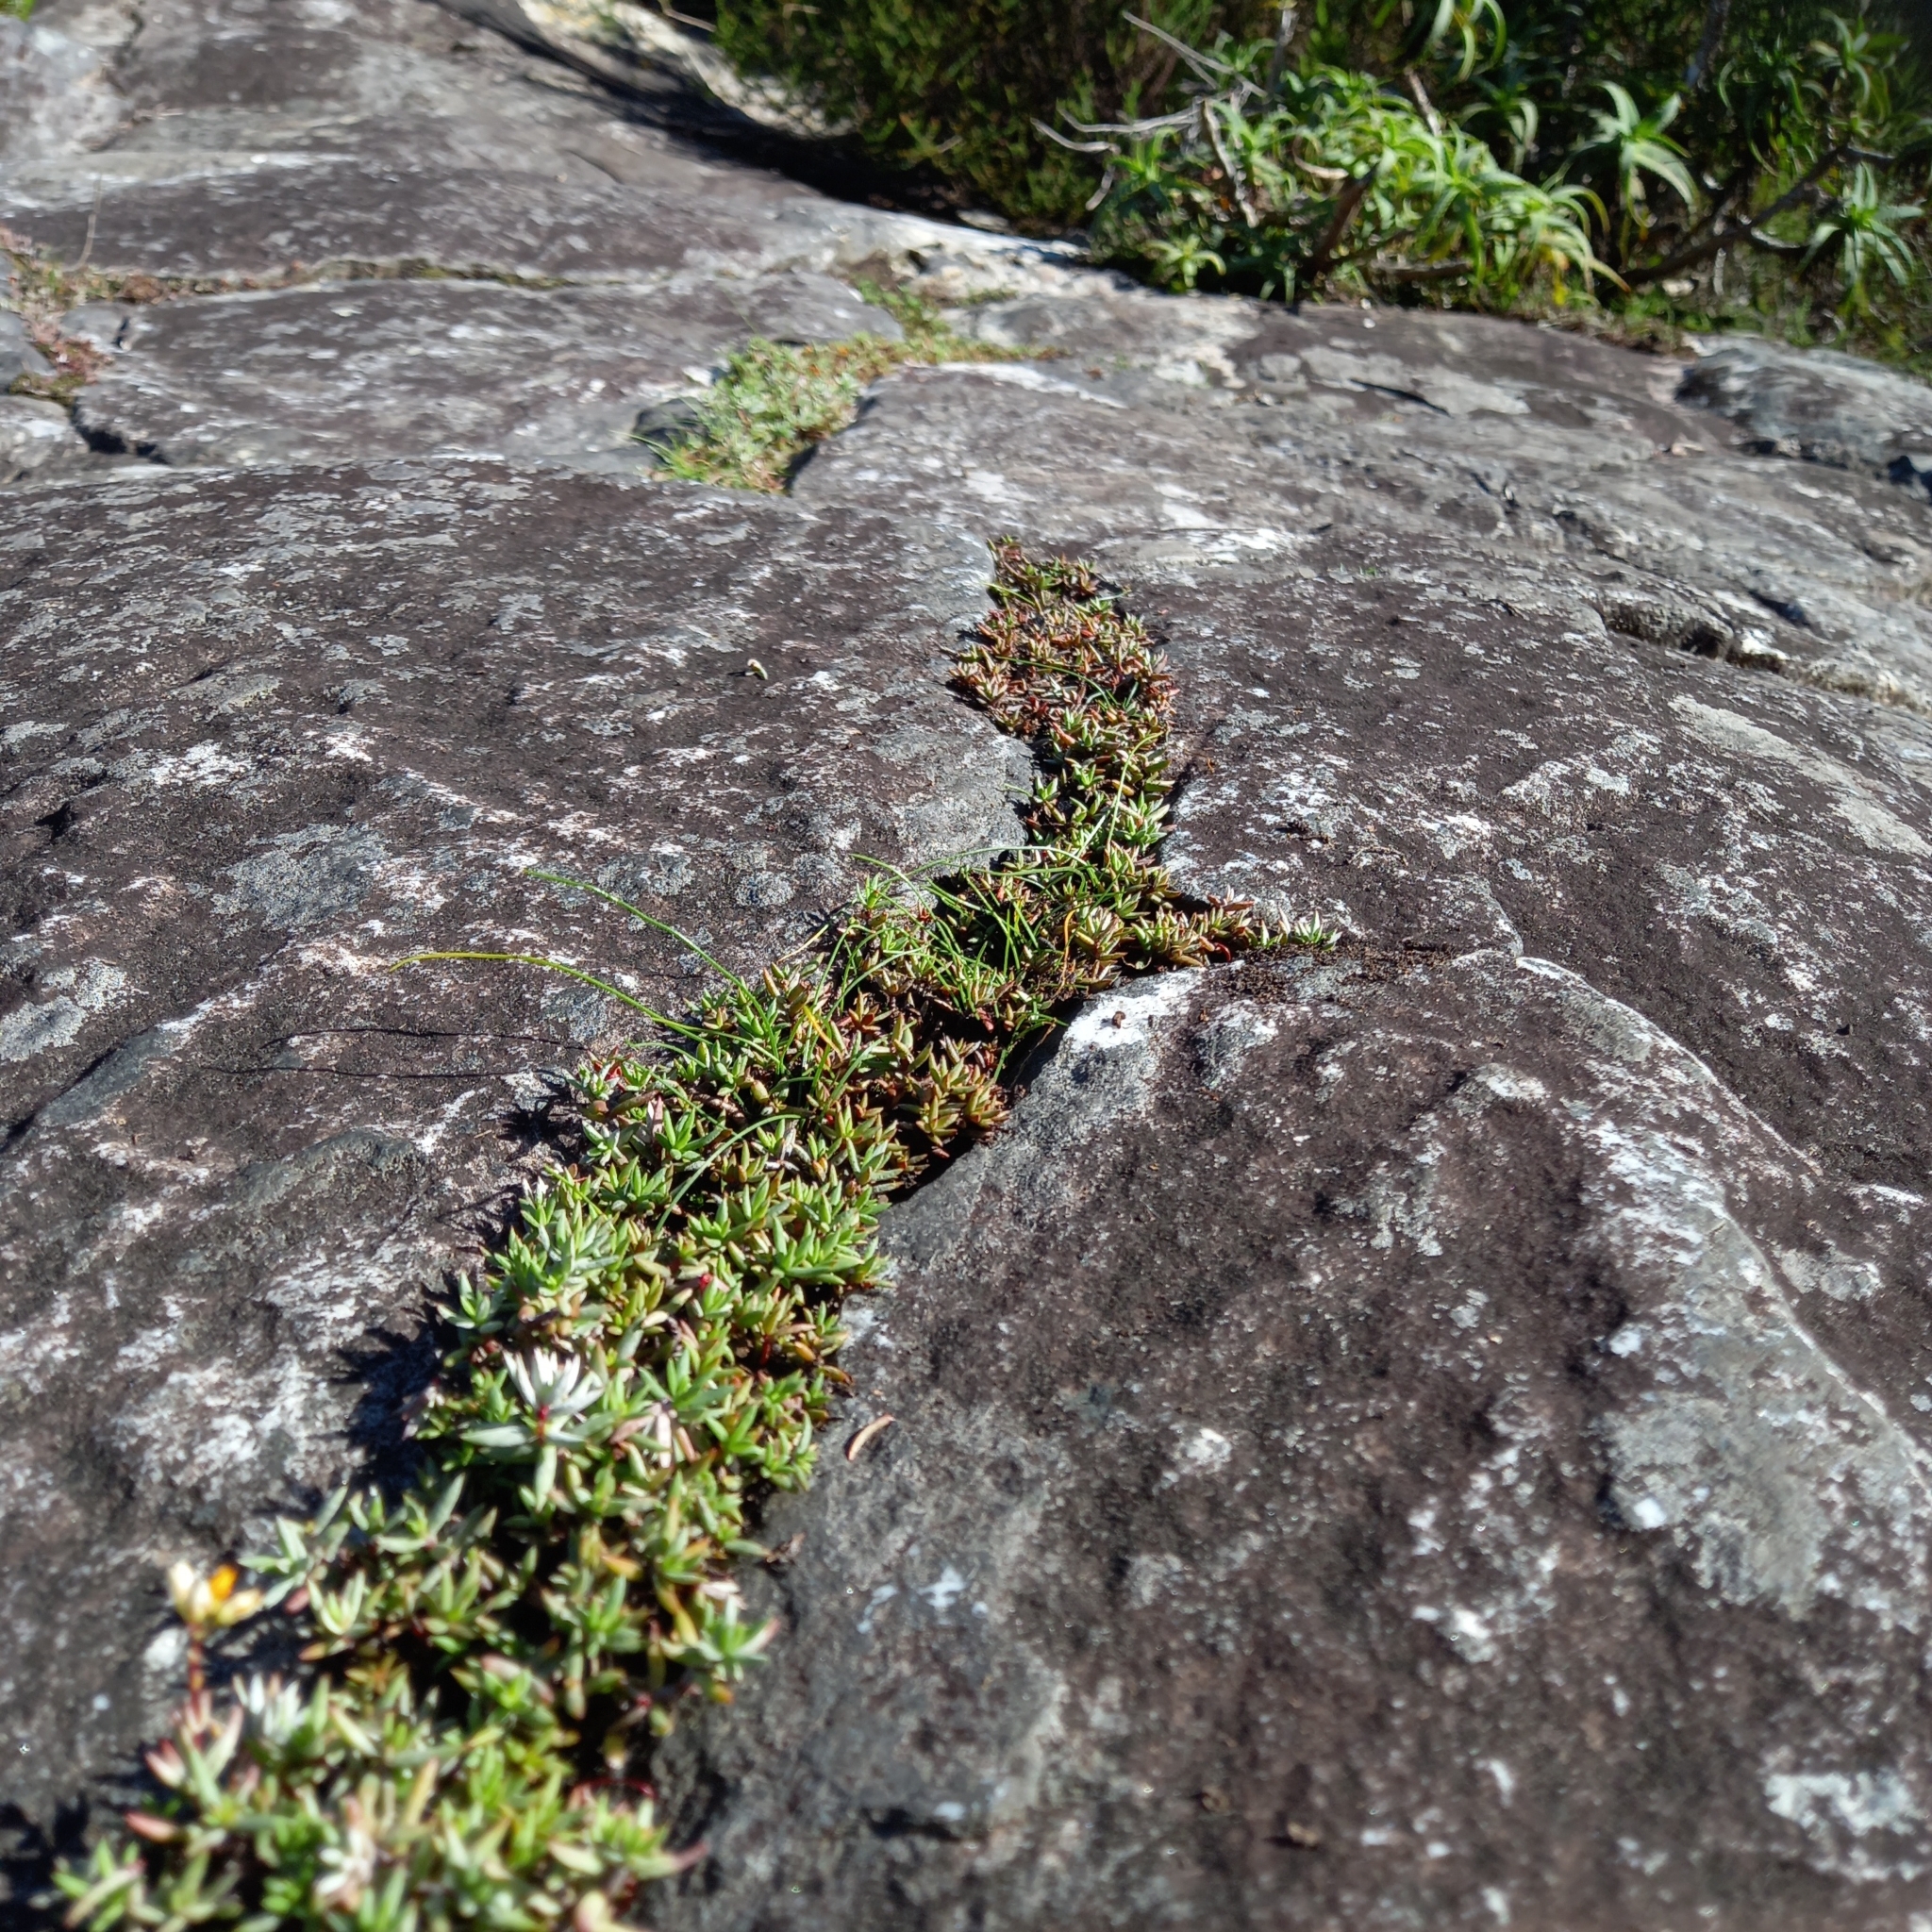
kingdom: Plantae
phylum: Tracheophyta
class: Magnoliopsida
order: Saxifragales
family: Crassulaceae
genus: Crassula
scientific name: Crassula biplanata
